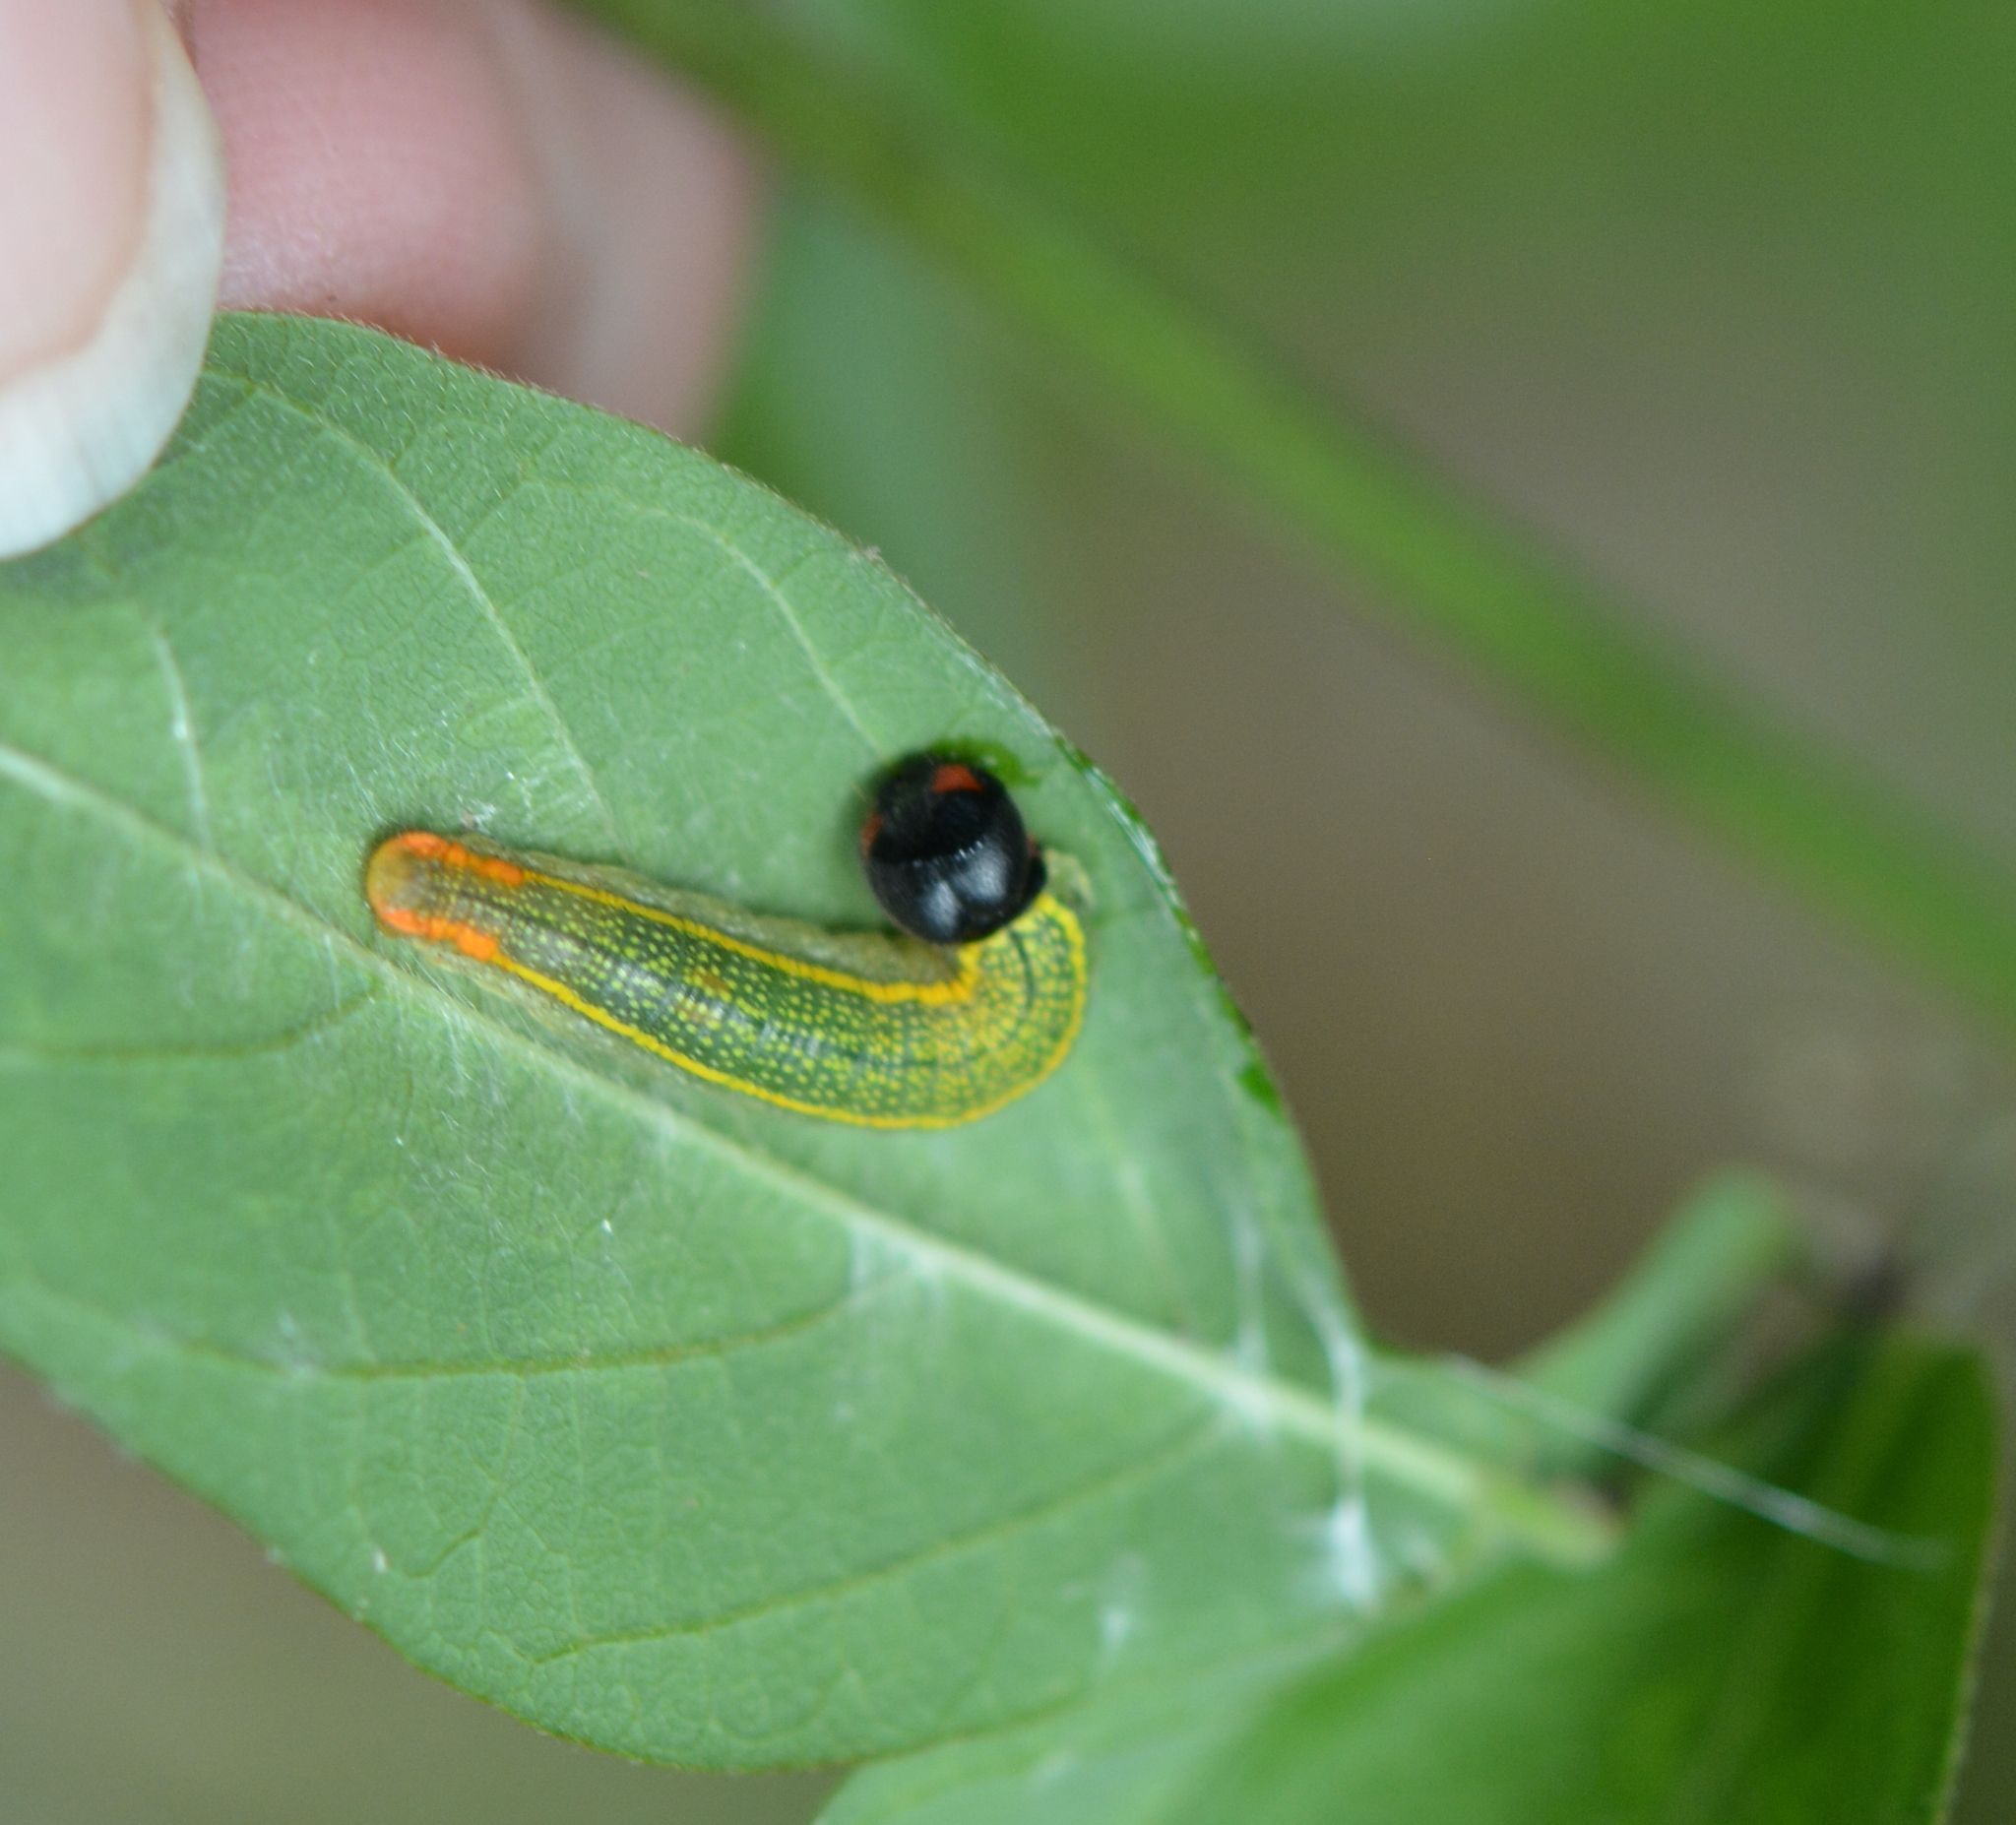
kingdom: Animalia
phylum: Arthropoda
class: Insecta
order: Lepidoptera
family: Hesperiidae
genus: Urbanus
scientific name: Urbanus proteus
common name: Long-tailed skipper
